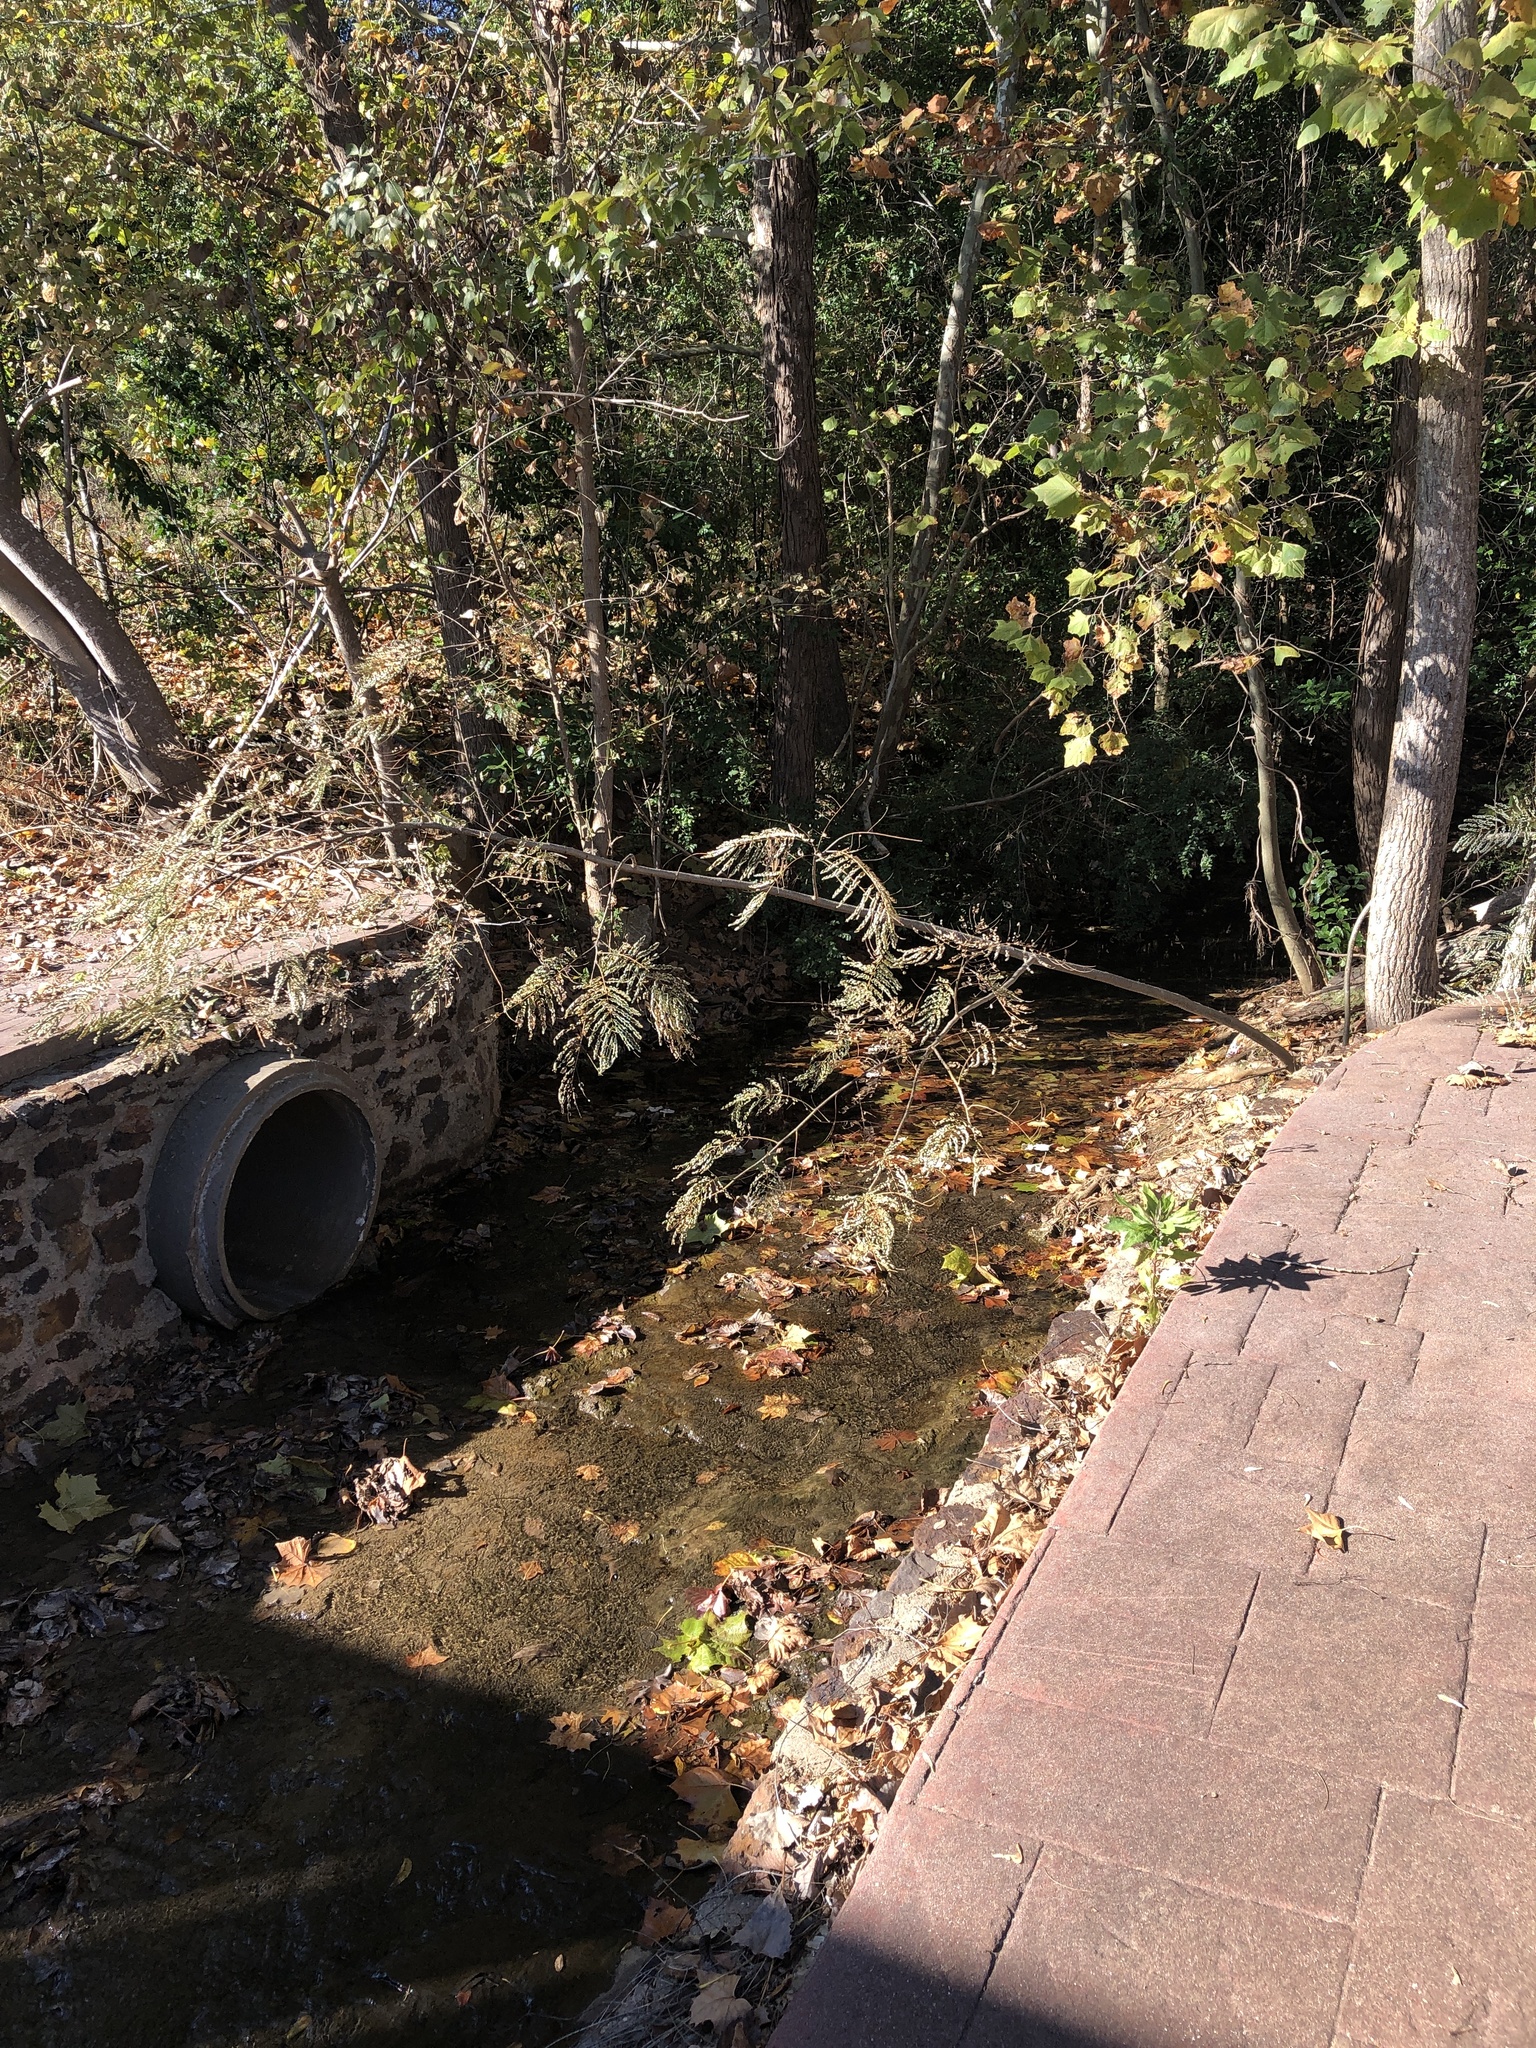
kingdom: Plantae
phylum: Tracheophyta
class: Magnoliopsida
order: Fabales
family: Fabaceae
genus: Albizia
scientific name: Albizia julibrissin
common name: Silktree
